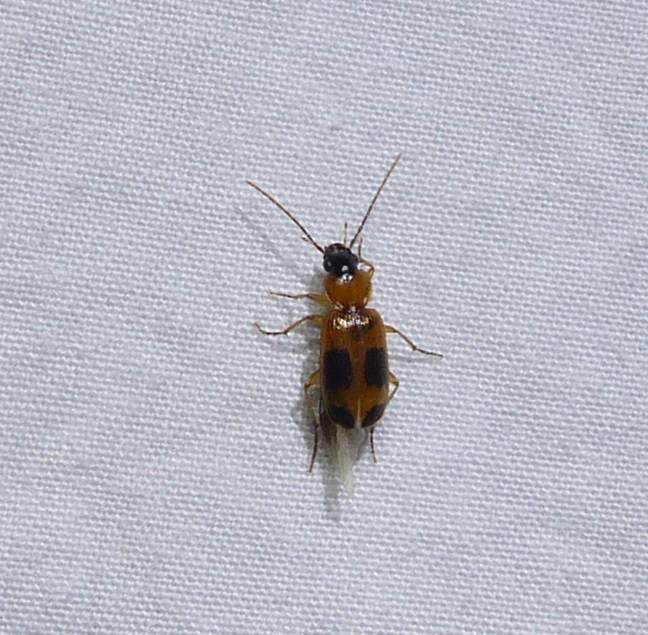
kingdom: Animalia
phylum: Arthropoda
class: Insecta
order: Coleoptera
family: Carabidae
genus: Badister
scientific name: Badister neopulchellus
